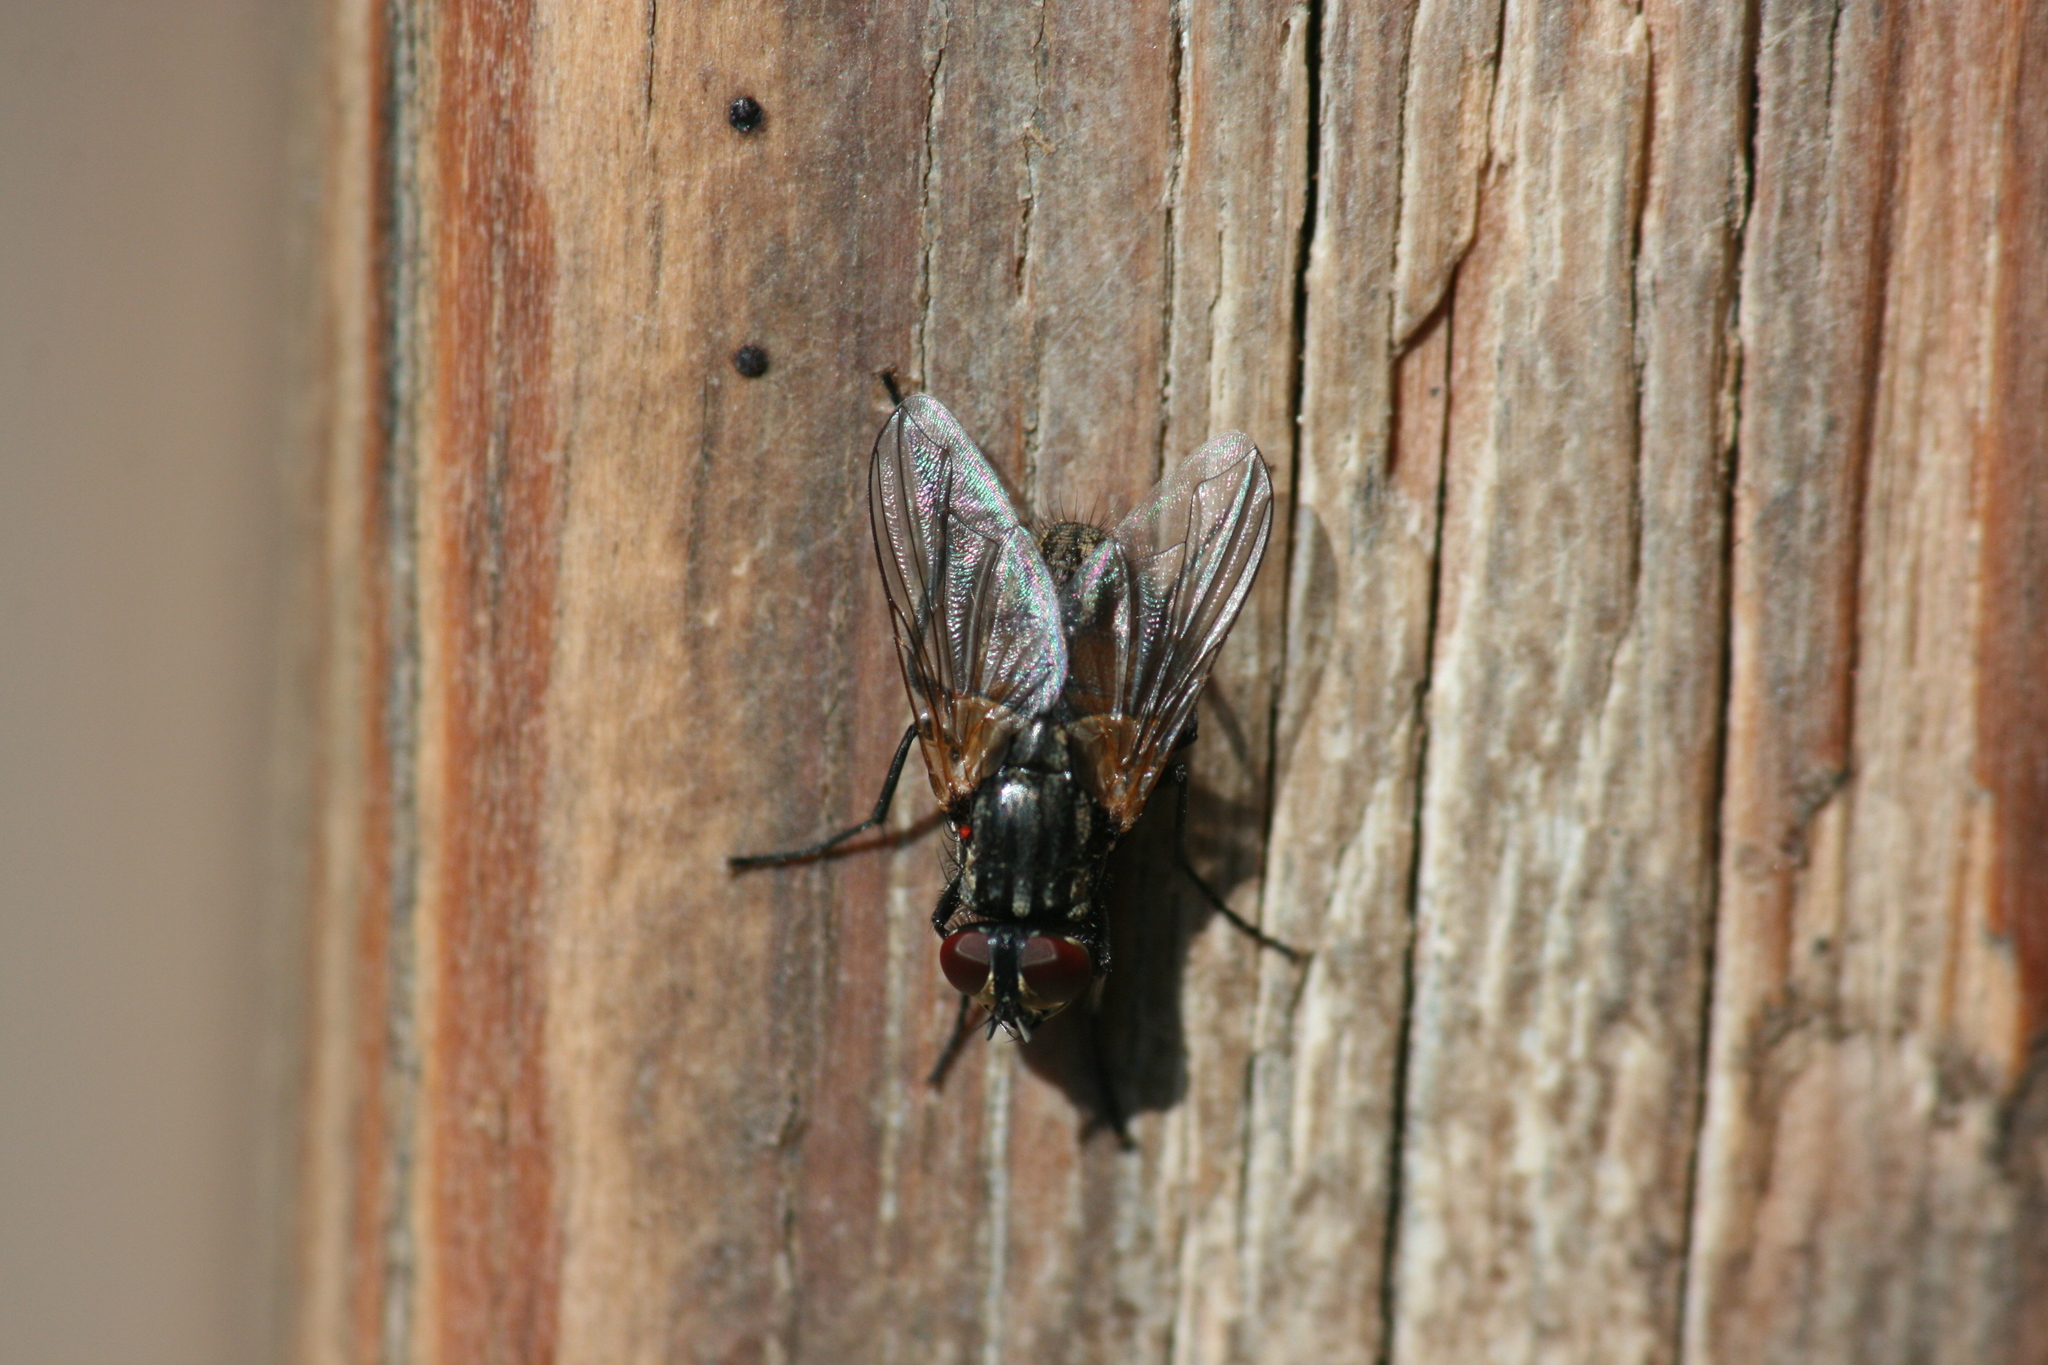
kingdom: Animalia
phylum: Arthropoda
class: Insecta
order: Diptera
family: Muscidae
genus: Musca
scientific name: Musca domestica
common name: House fly
